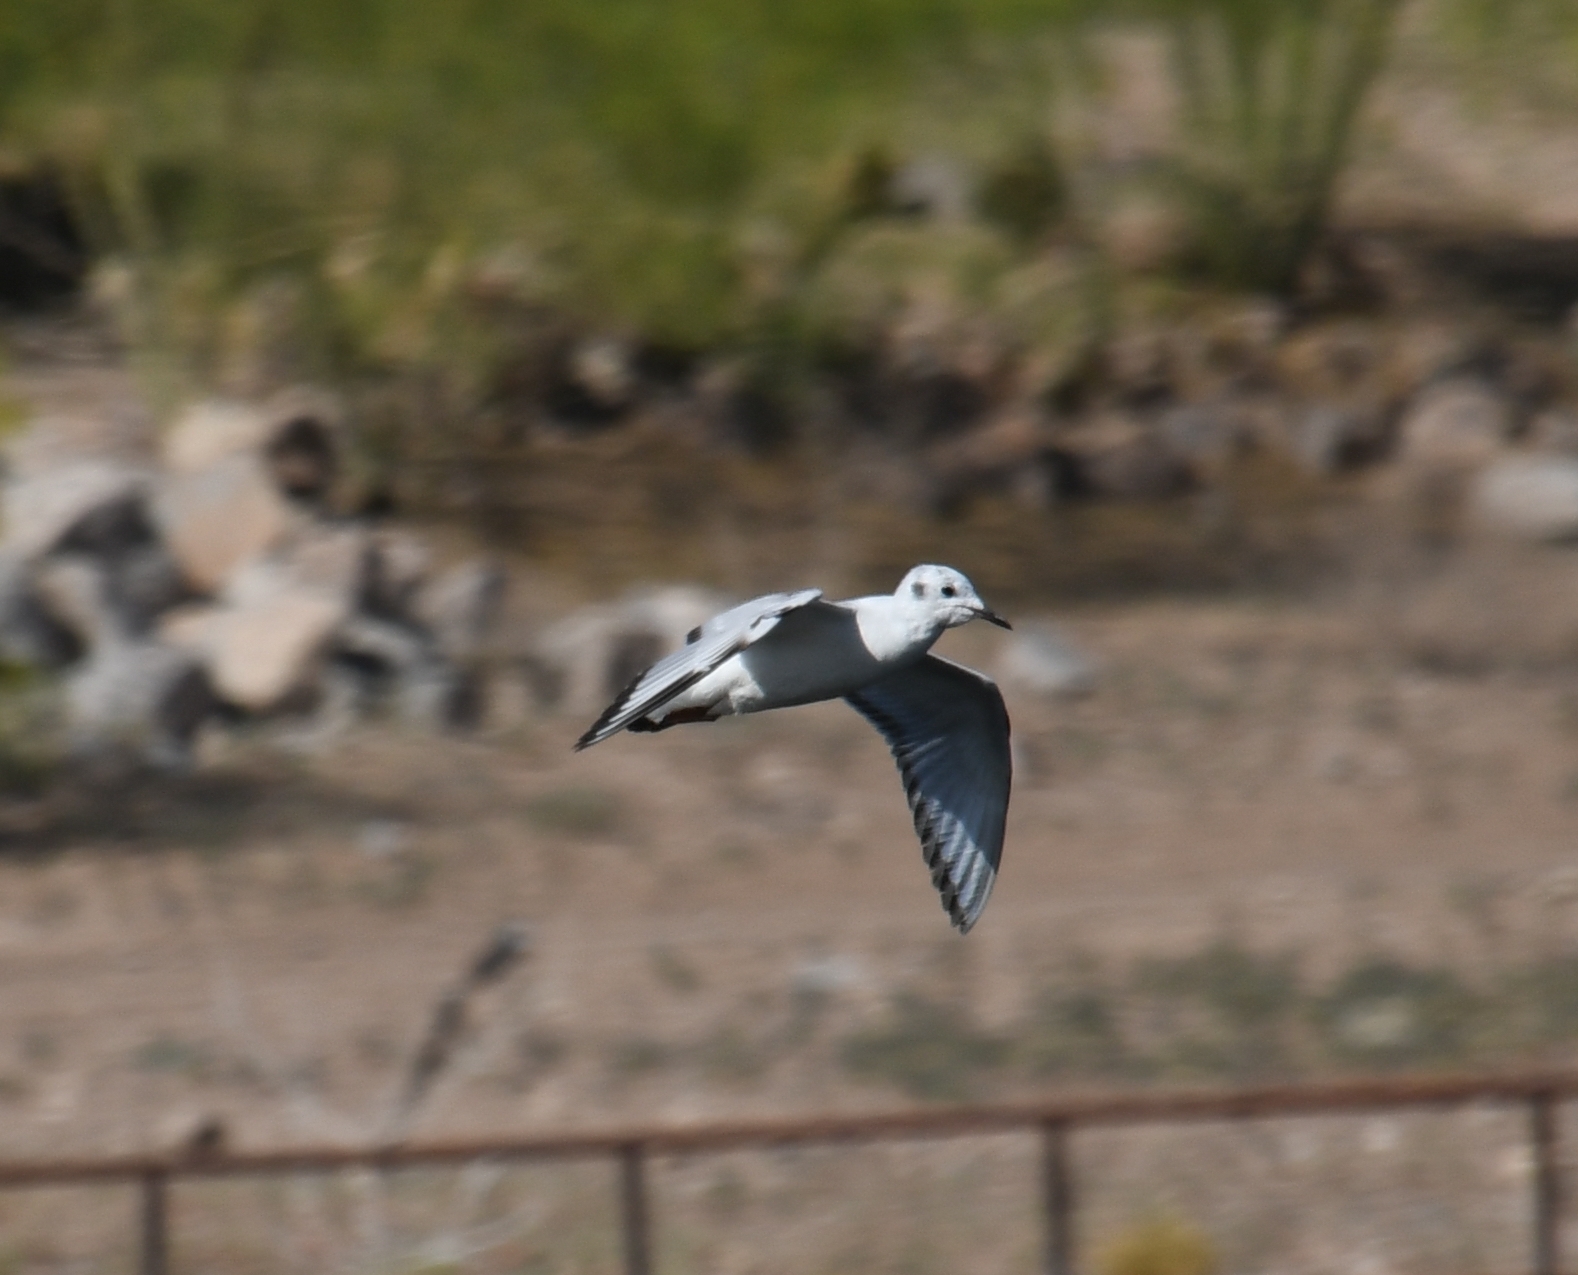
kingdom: Animalia
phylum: Chordata
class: Aves
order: Charadriiformes
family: Laridae
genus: Chroicocephalus
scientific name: Chroicocephalus philadelphia
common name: Bonaparte's gull
